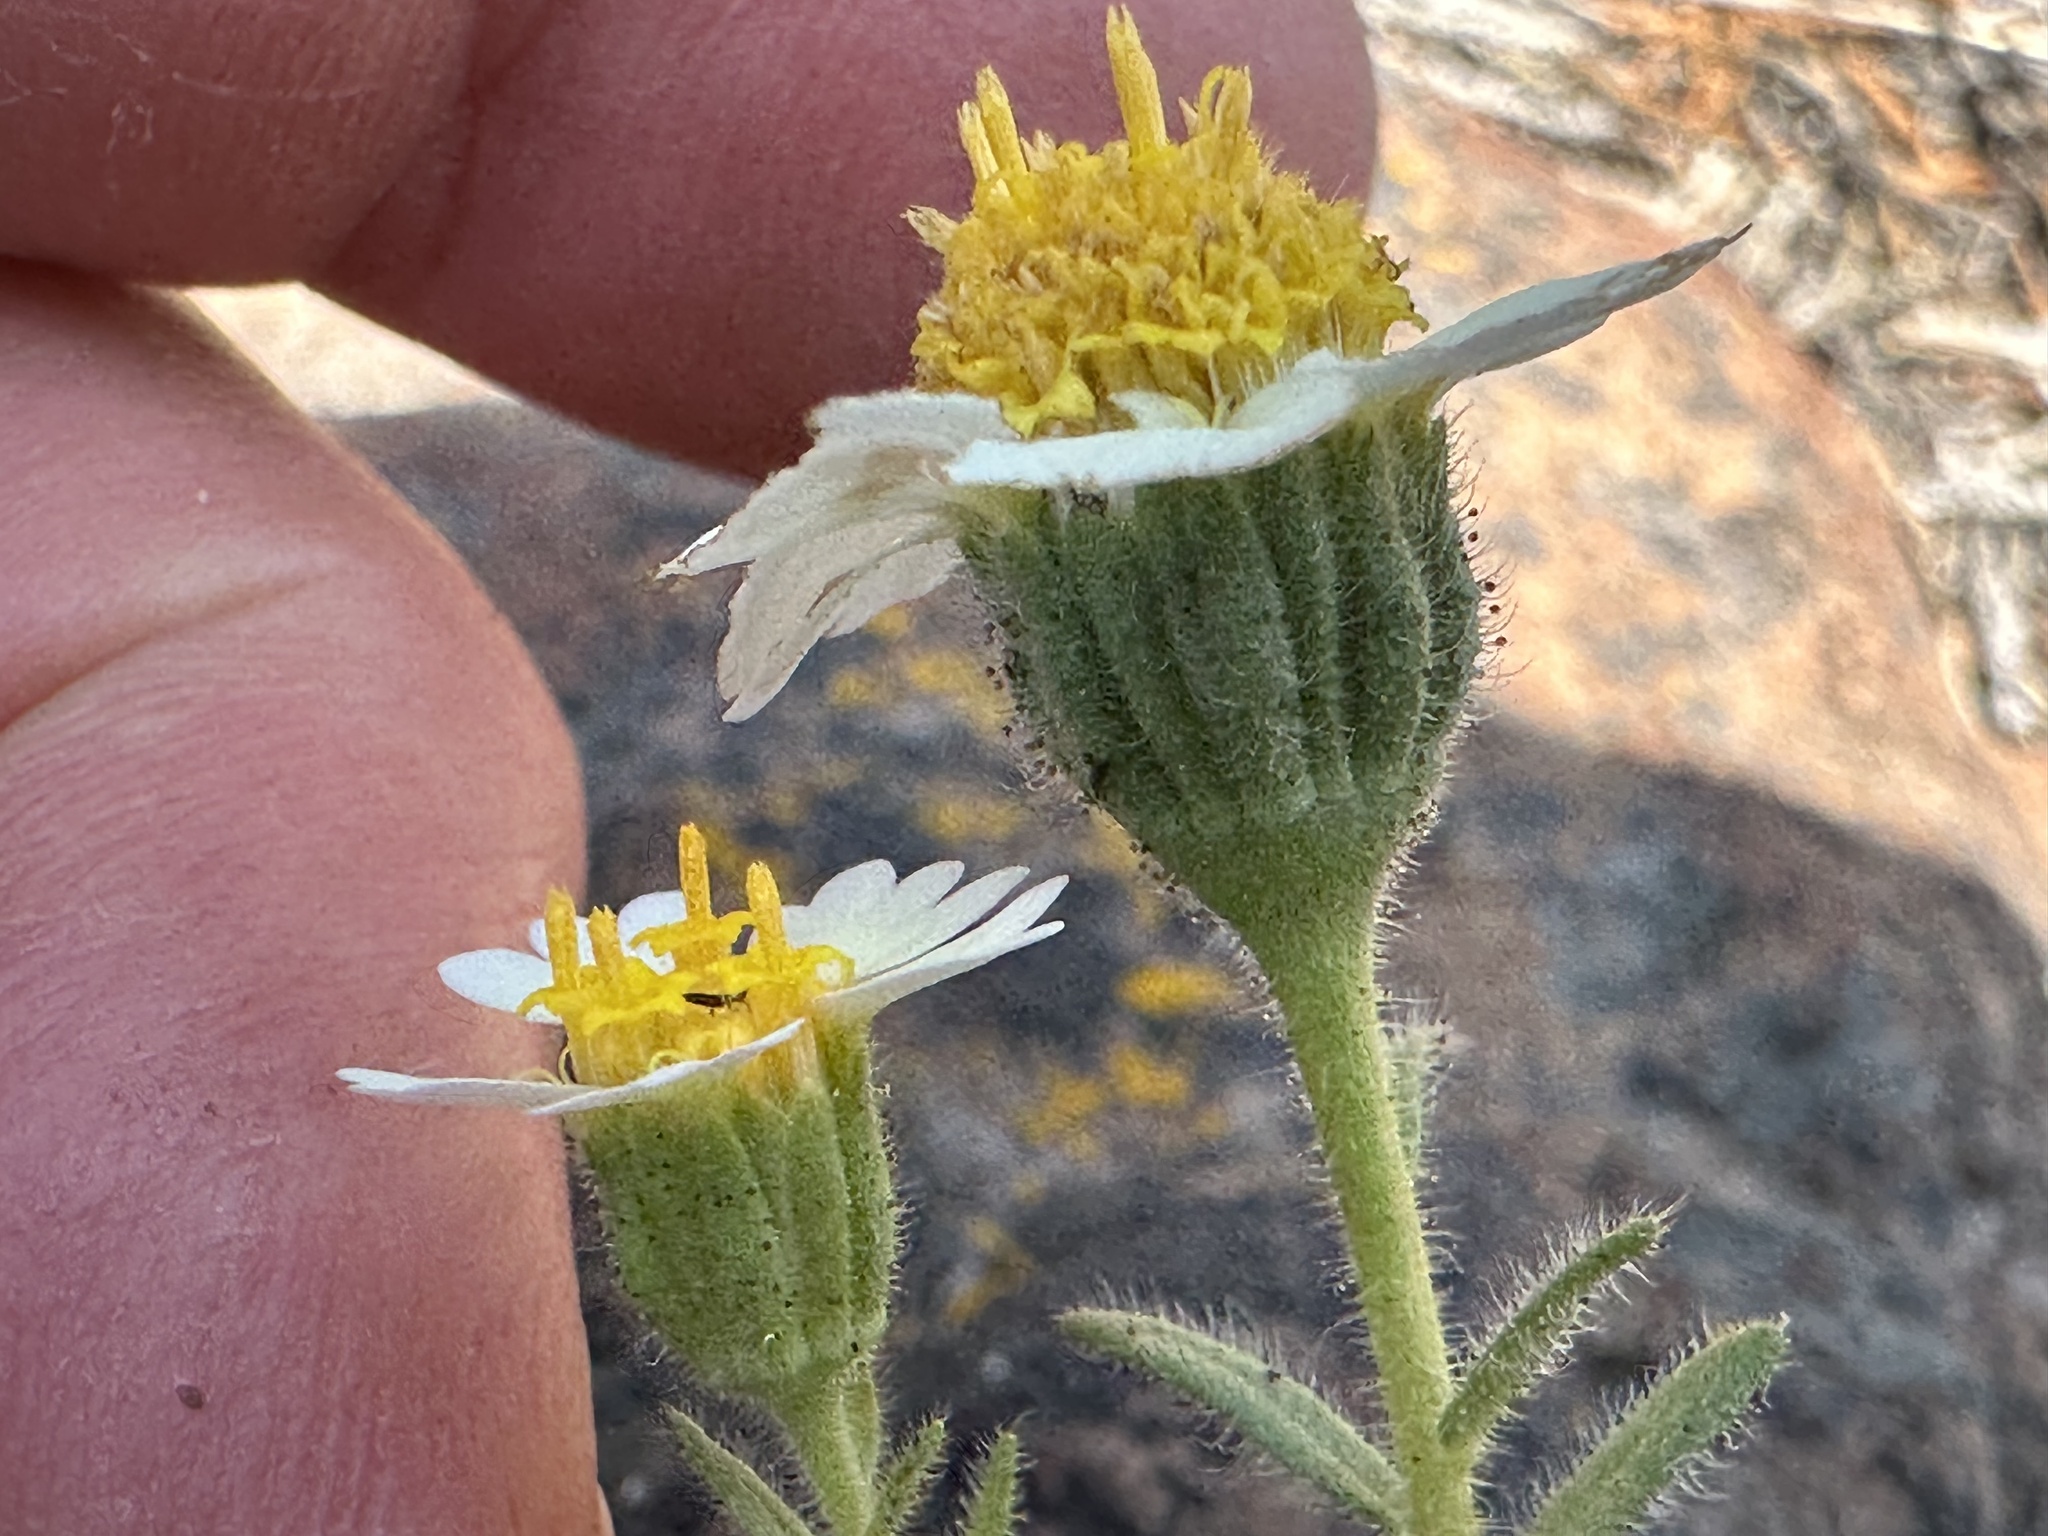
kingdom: Plantae
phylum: Tracheophyta
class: Magnoliopsida
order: Asterales
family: Asteraceae
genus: Layia
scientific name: Layia glandulosa
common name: White layia
